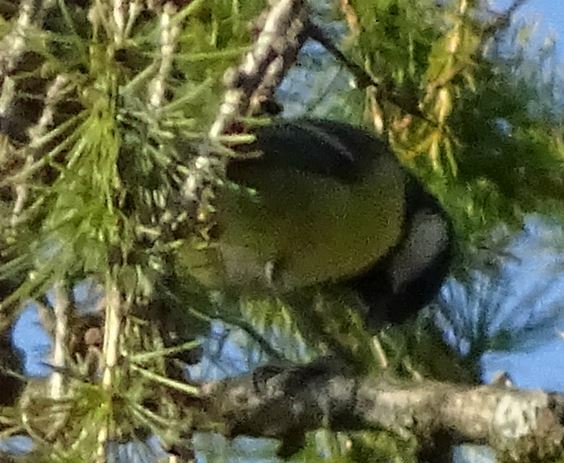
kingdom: Animalia
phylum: Chordata
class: Aves
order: Passeriformes
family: Paridae
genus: Parus
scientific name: Parus major
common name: Great tit
